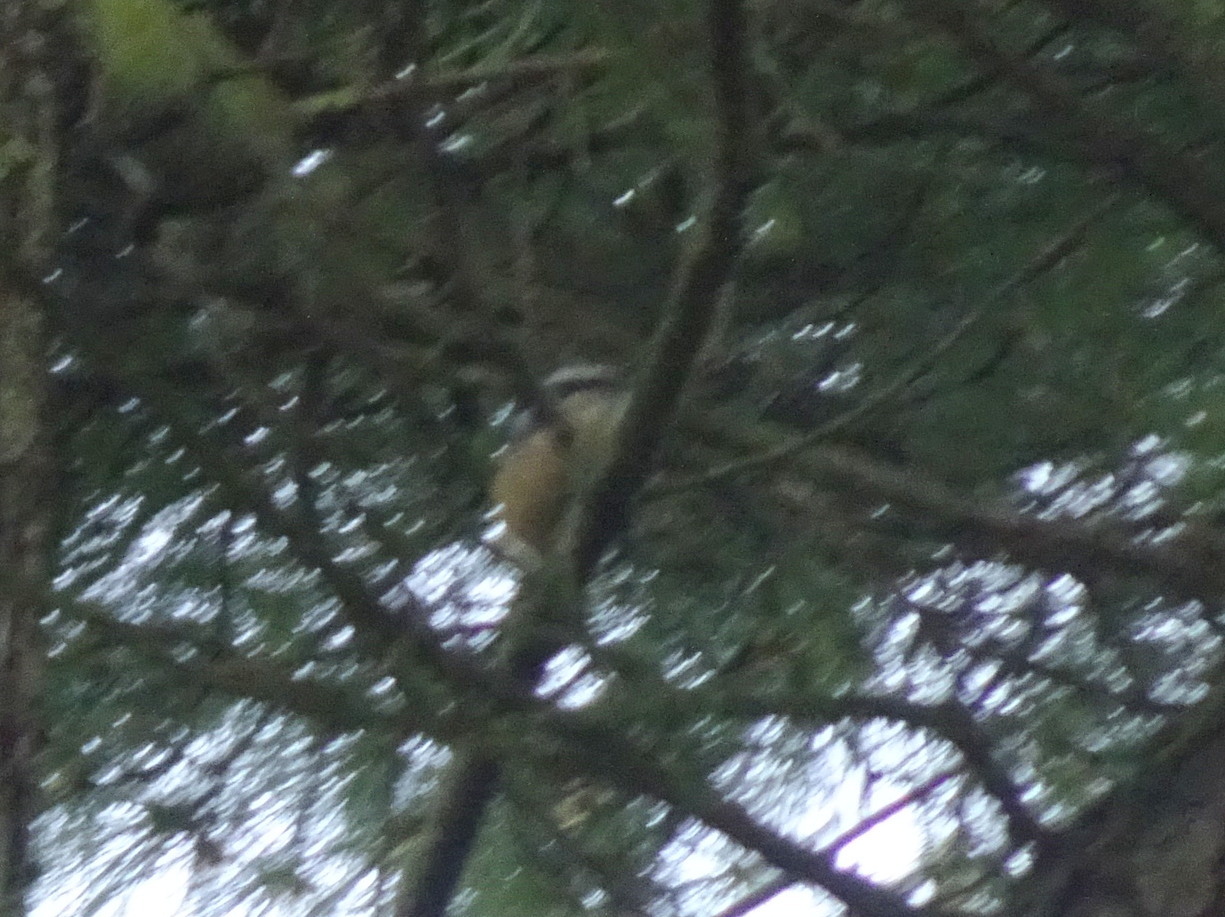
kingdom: Animalia
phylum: Chordata
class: Aves
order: Passeriformes
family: Sittidae
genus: Sitta
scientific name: Sitta canadensis
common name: Red-breasted nuthatch
